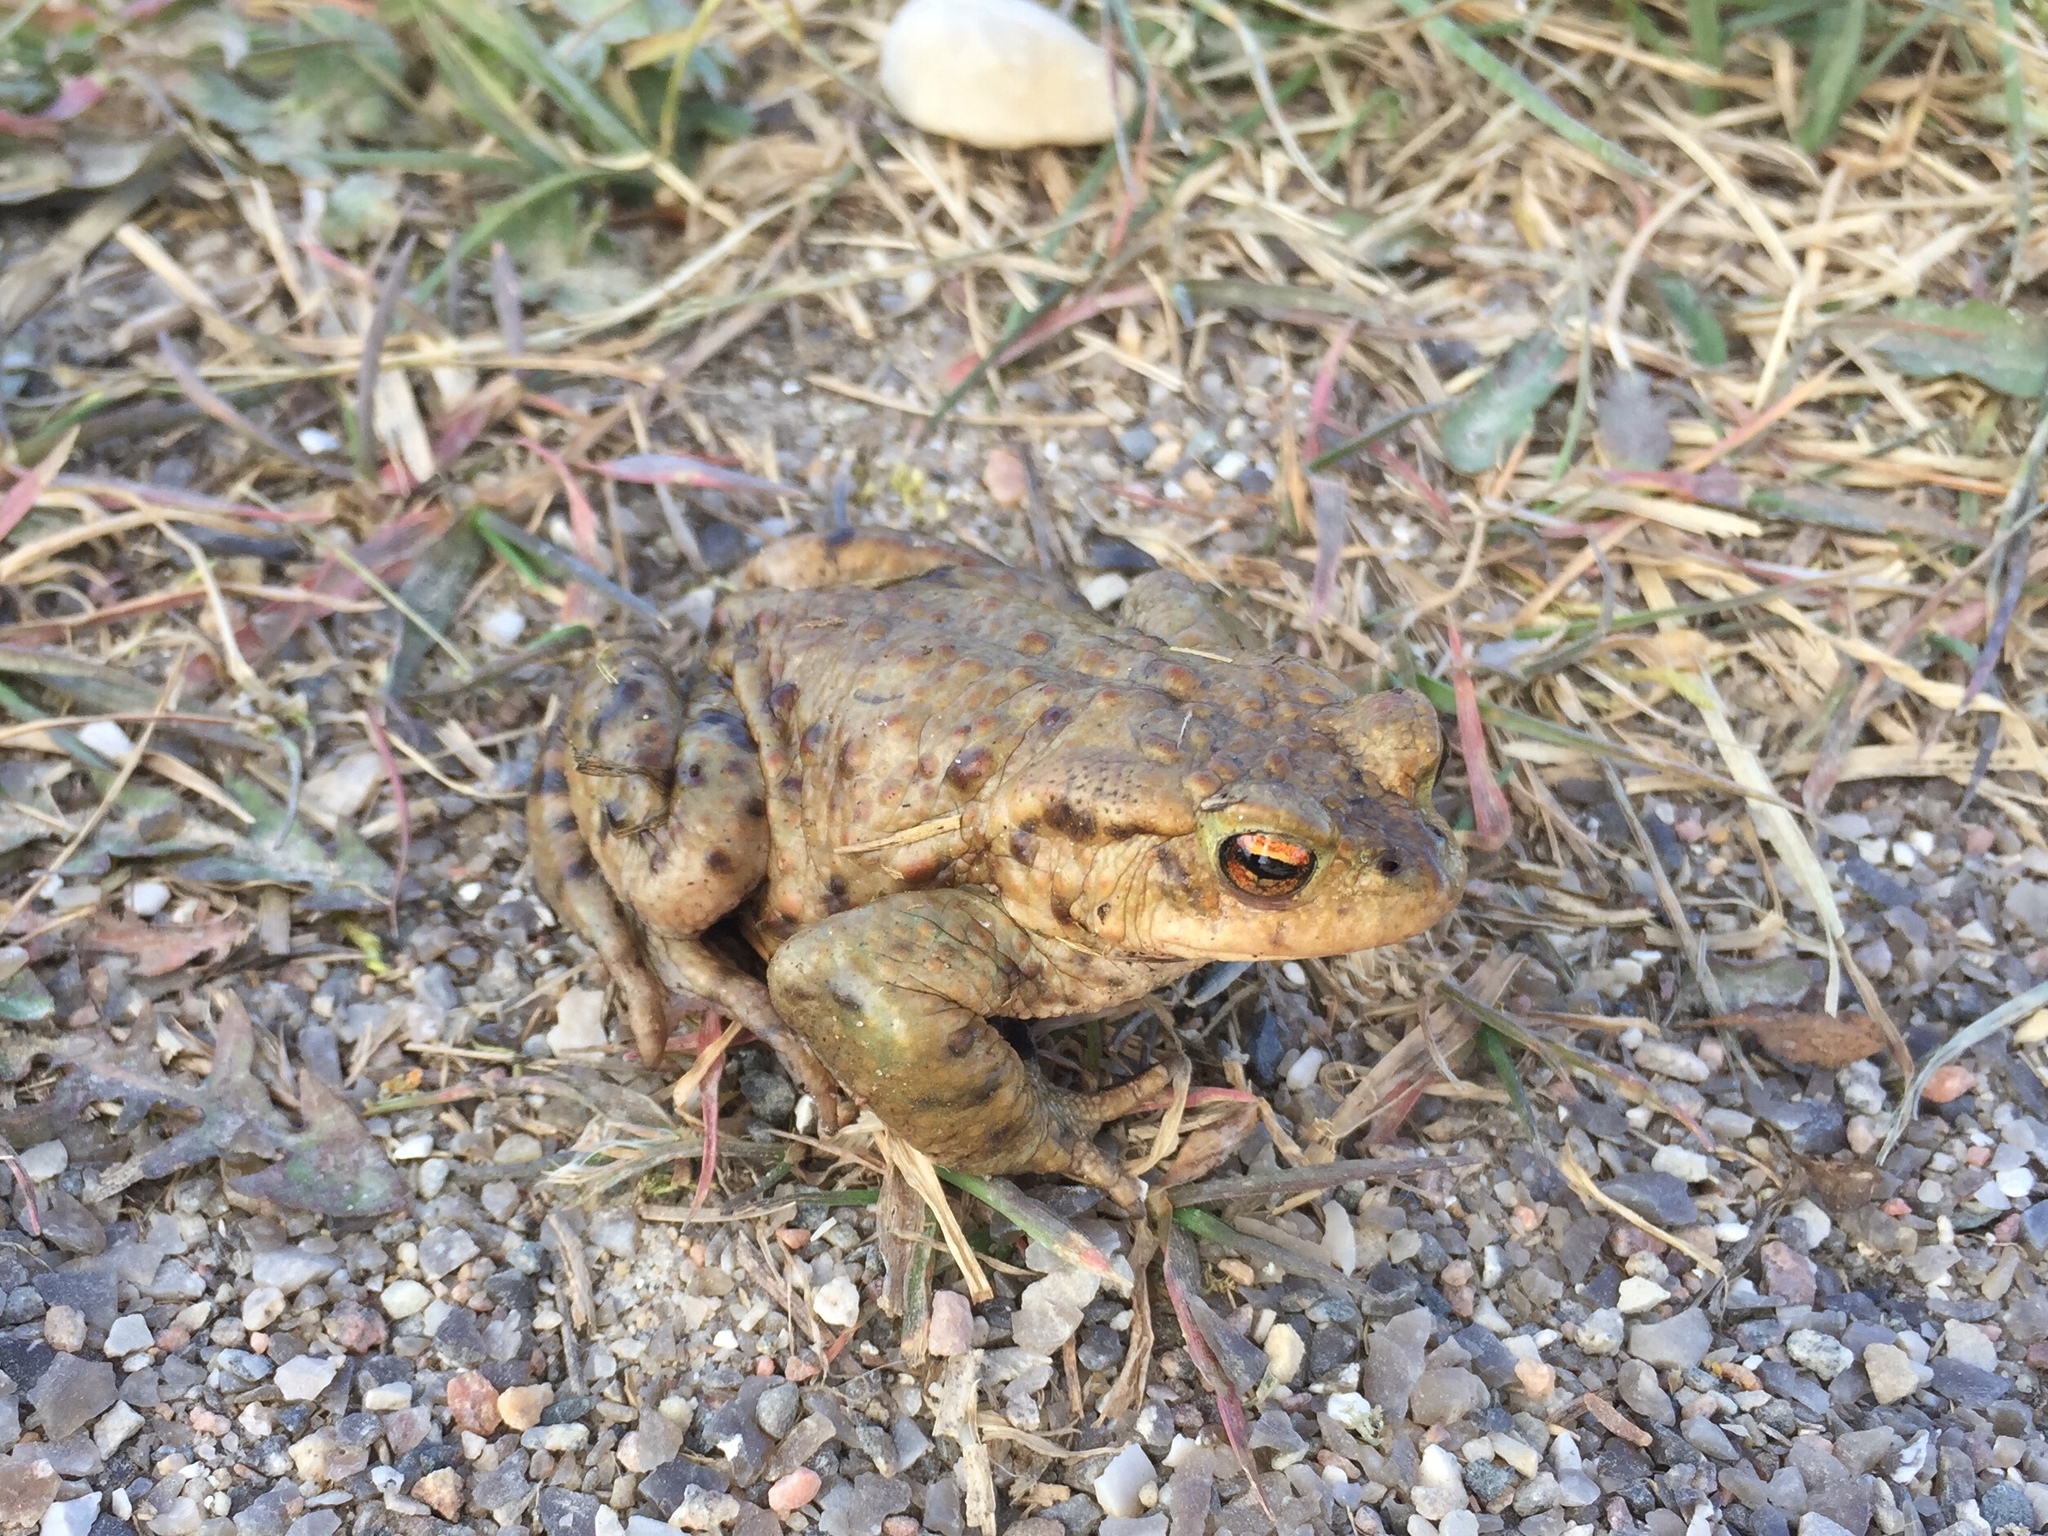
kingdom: Animalia
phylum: Chordata
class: Amphibia
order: Anura
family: Bufonidae
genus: Bufo
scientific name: Bufo bufo
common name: Common toad
